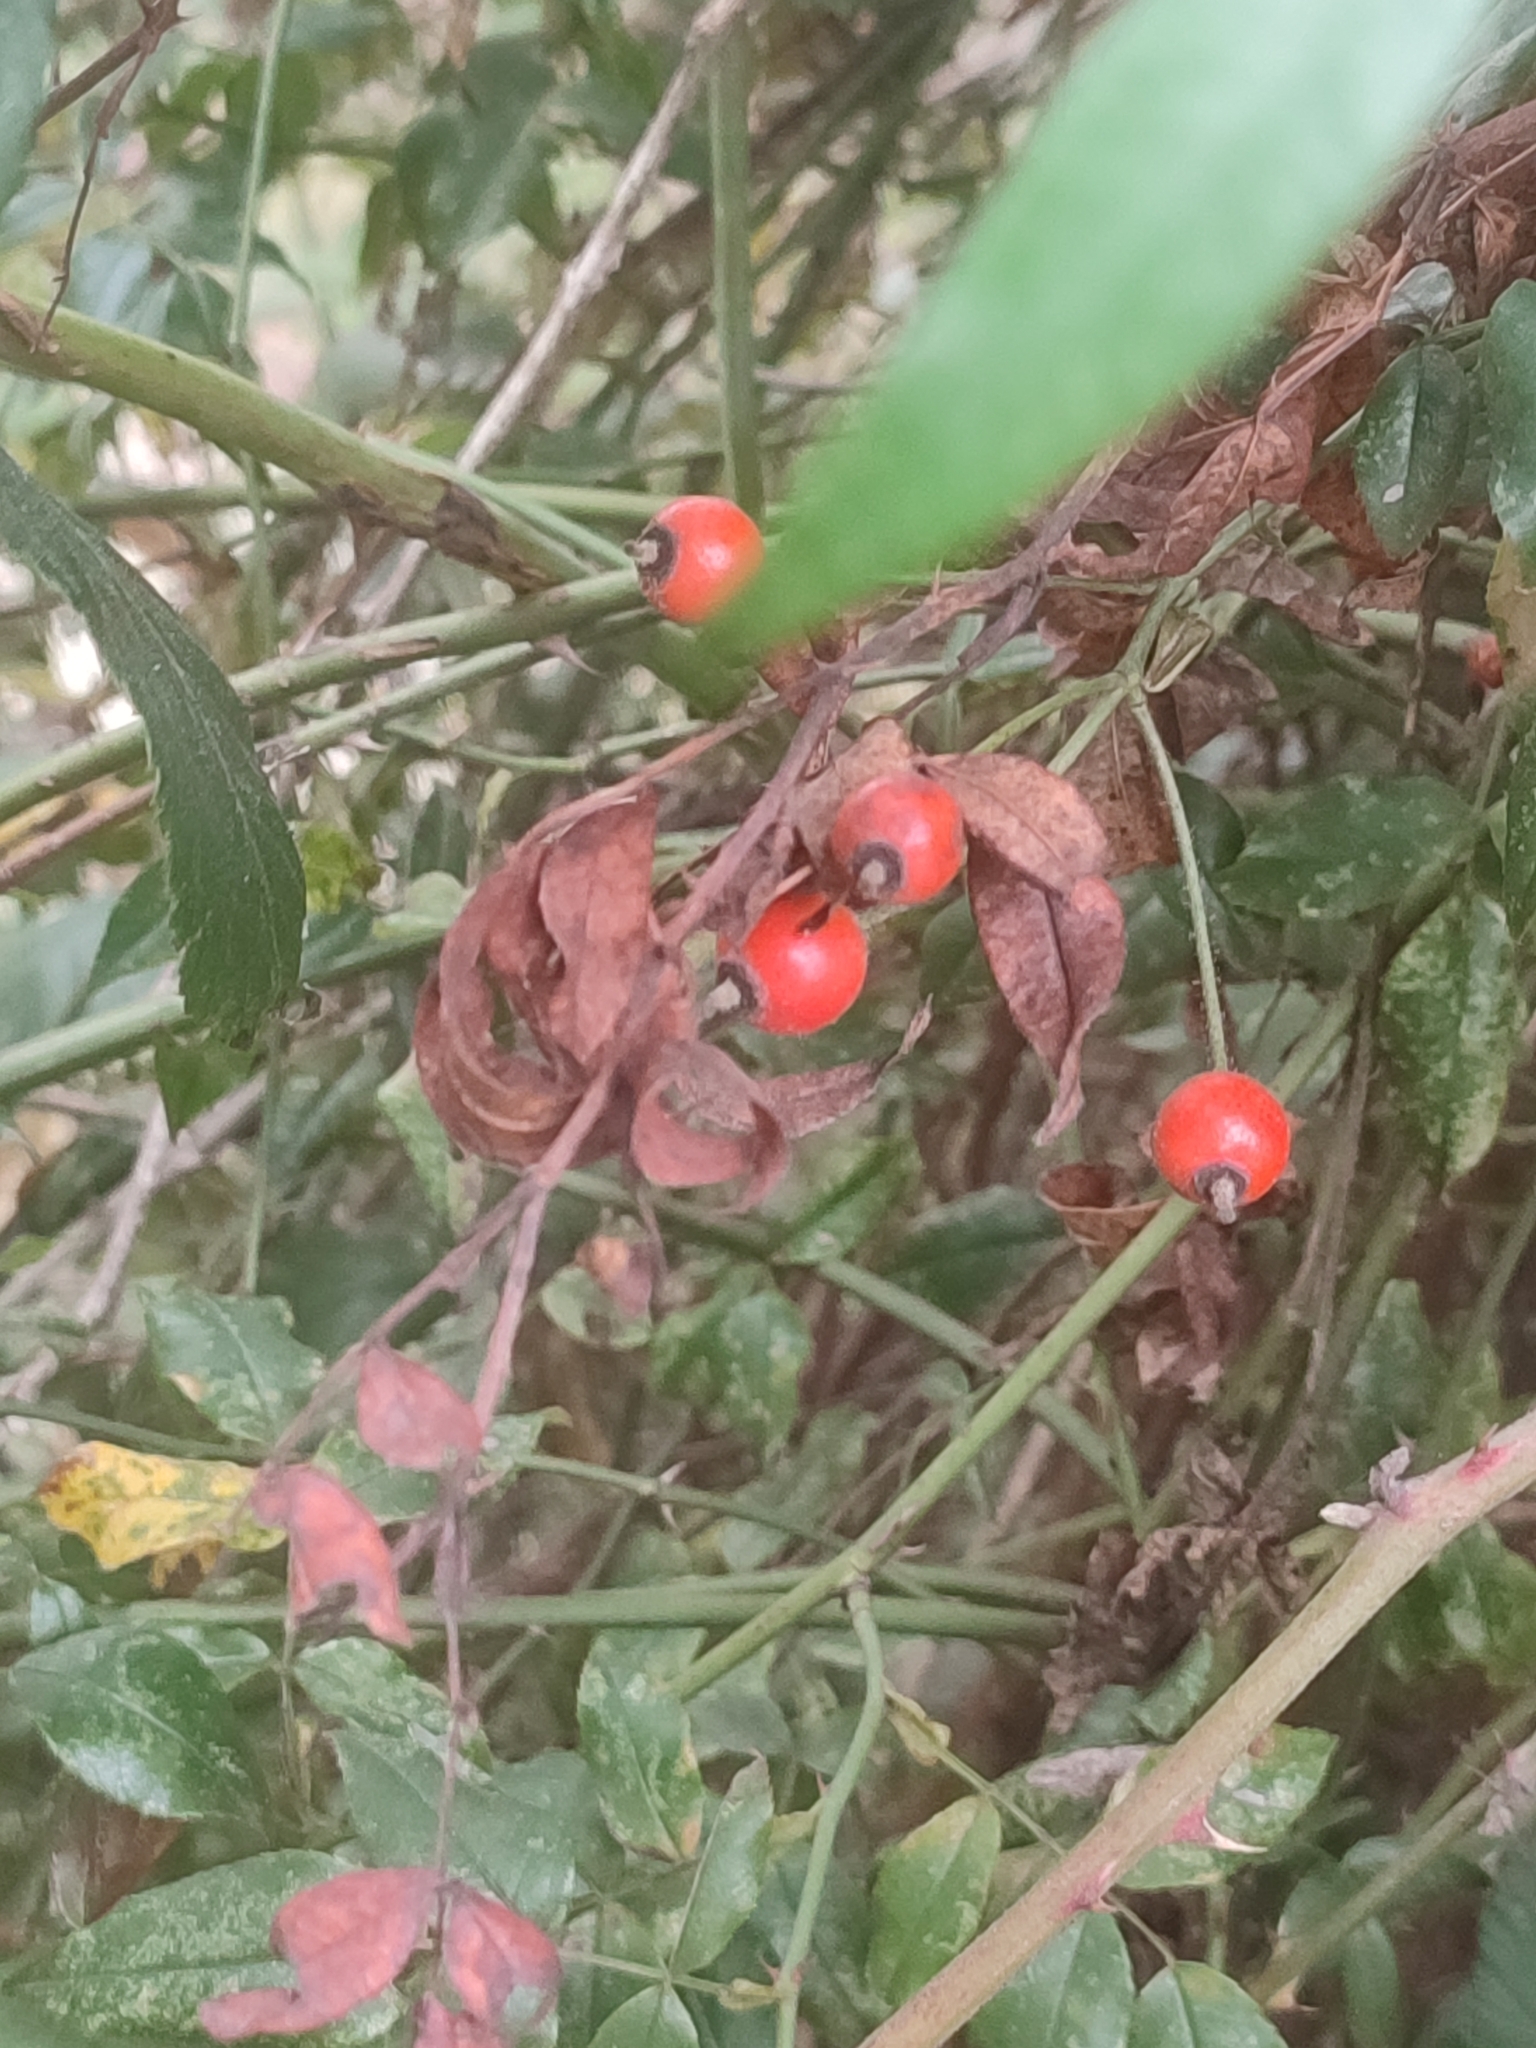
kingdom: Plantae
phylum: Tracheophyta
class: Magnoliopsida
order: Rosales
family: Rosaceae
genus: Rosa
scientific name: Rosa sempervirens
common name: Evergreen rose
